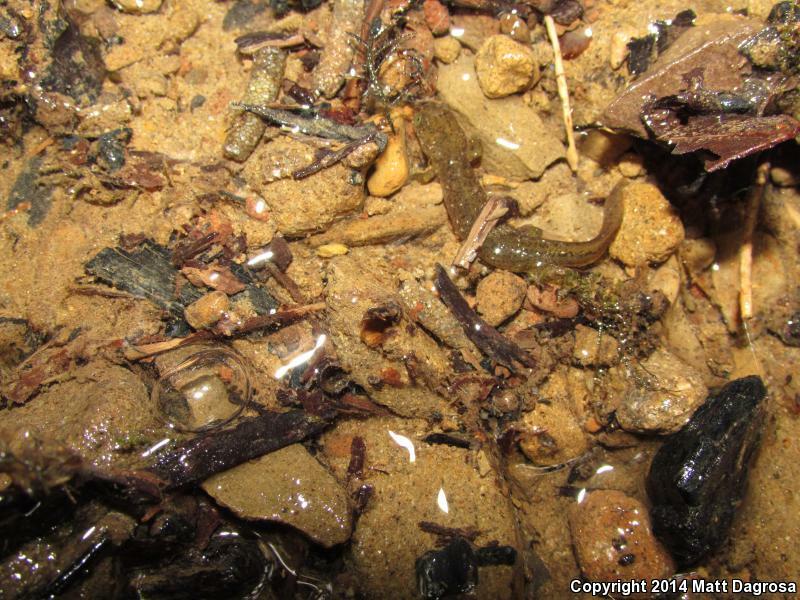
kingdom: Animalia
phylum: Chordata
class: Amphibia
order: Caudata
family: Rhyacotritonidae
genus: Rhyacotriton
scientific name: Rhyacotriton variegatus
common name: Southern torrent salamander
